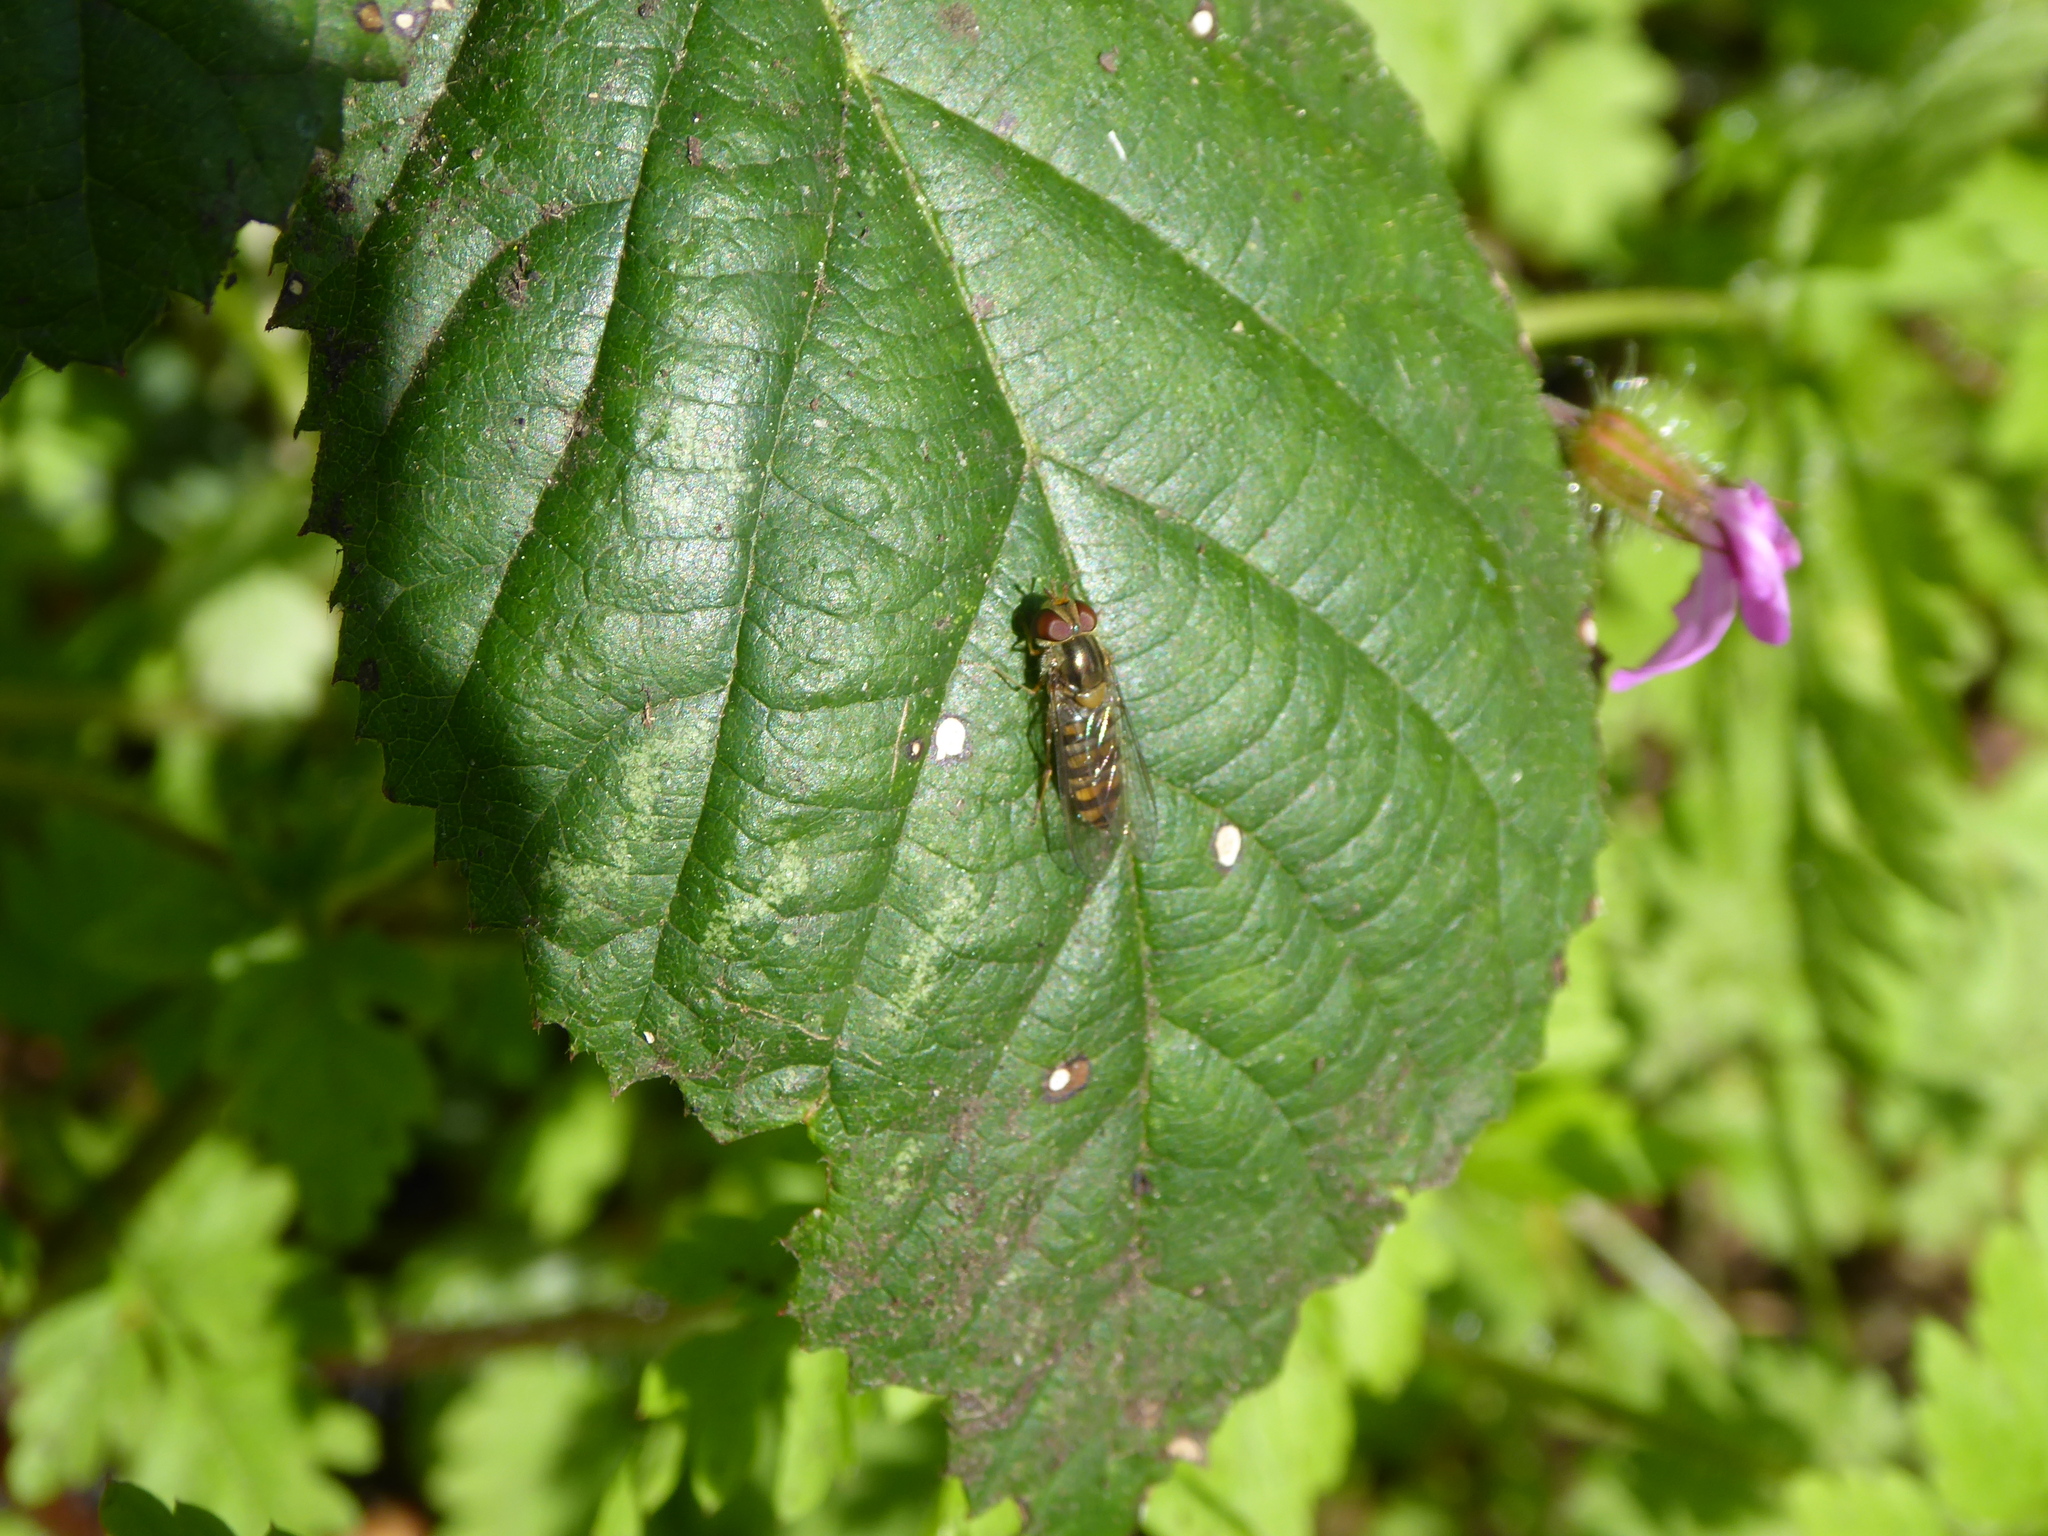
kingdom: Animalia
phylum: Arthropoda
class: Insecta
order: Diptera
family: Syrphidae
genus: Episyrphus
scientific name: Episyrphus balteatus
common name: Marmalade hoverfly
